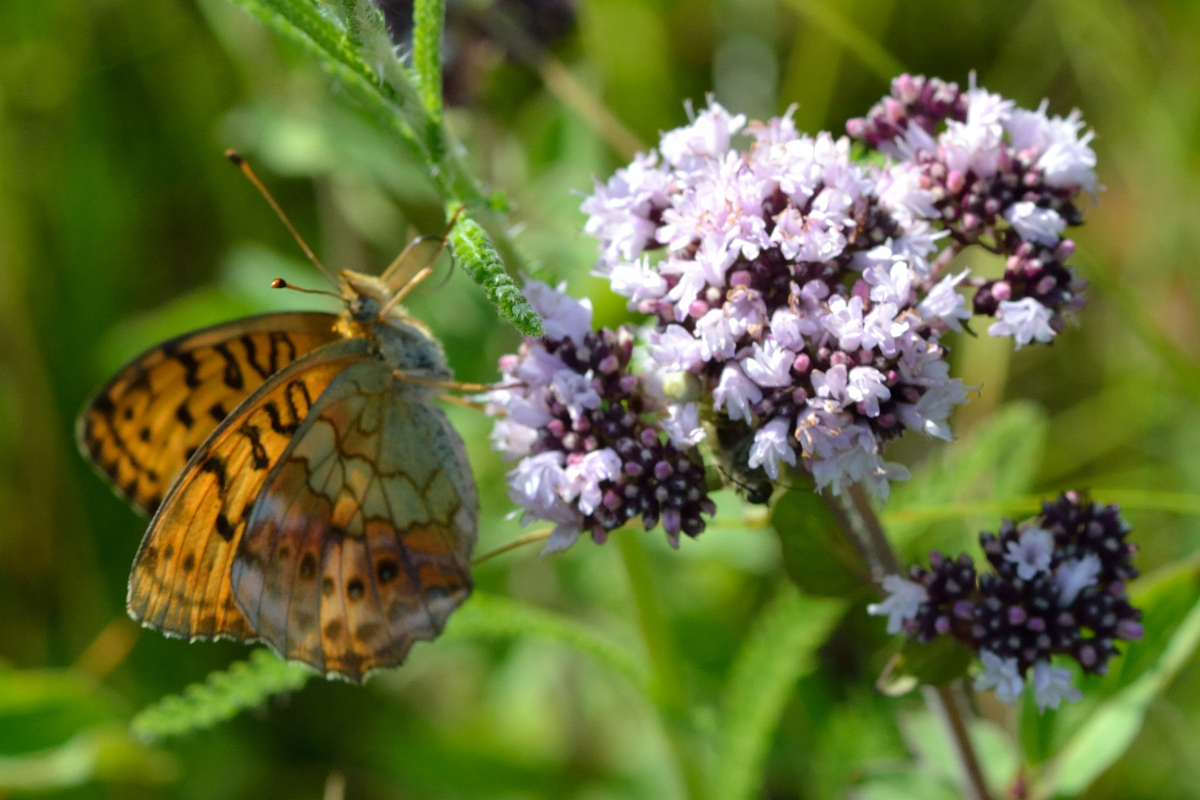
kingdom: Animalia
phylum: Arthropoda
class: Insecta
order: Lepidoptera
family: Nymphalidae
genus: Brenthis
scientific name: Brenthis daphne
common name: Marbled fritillary
